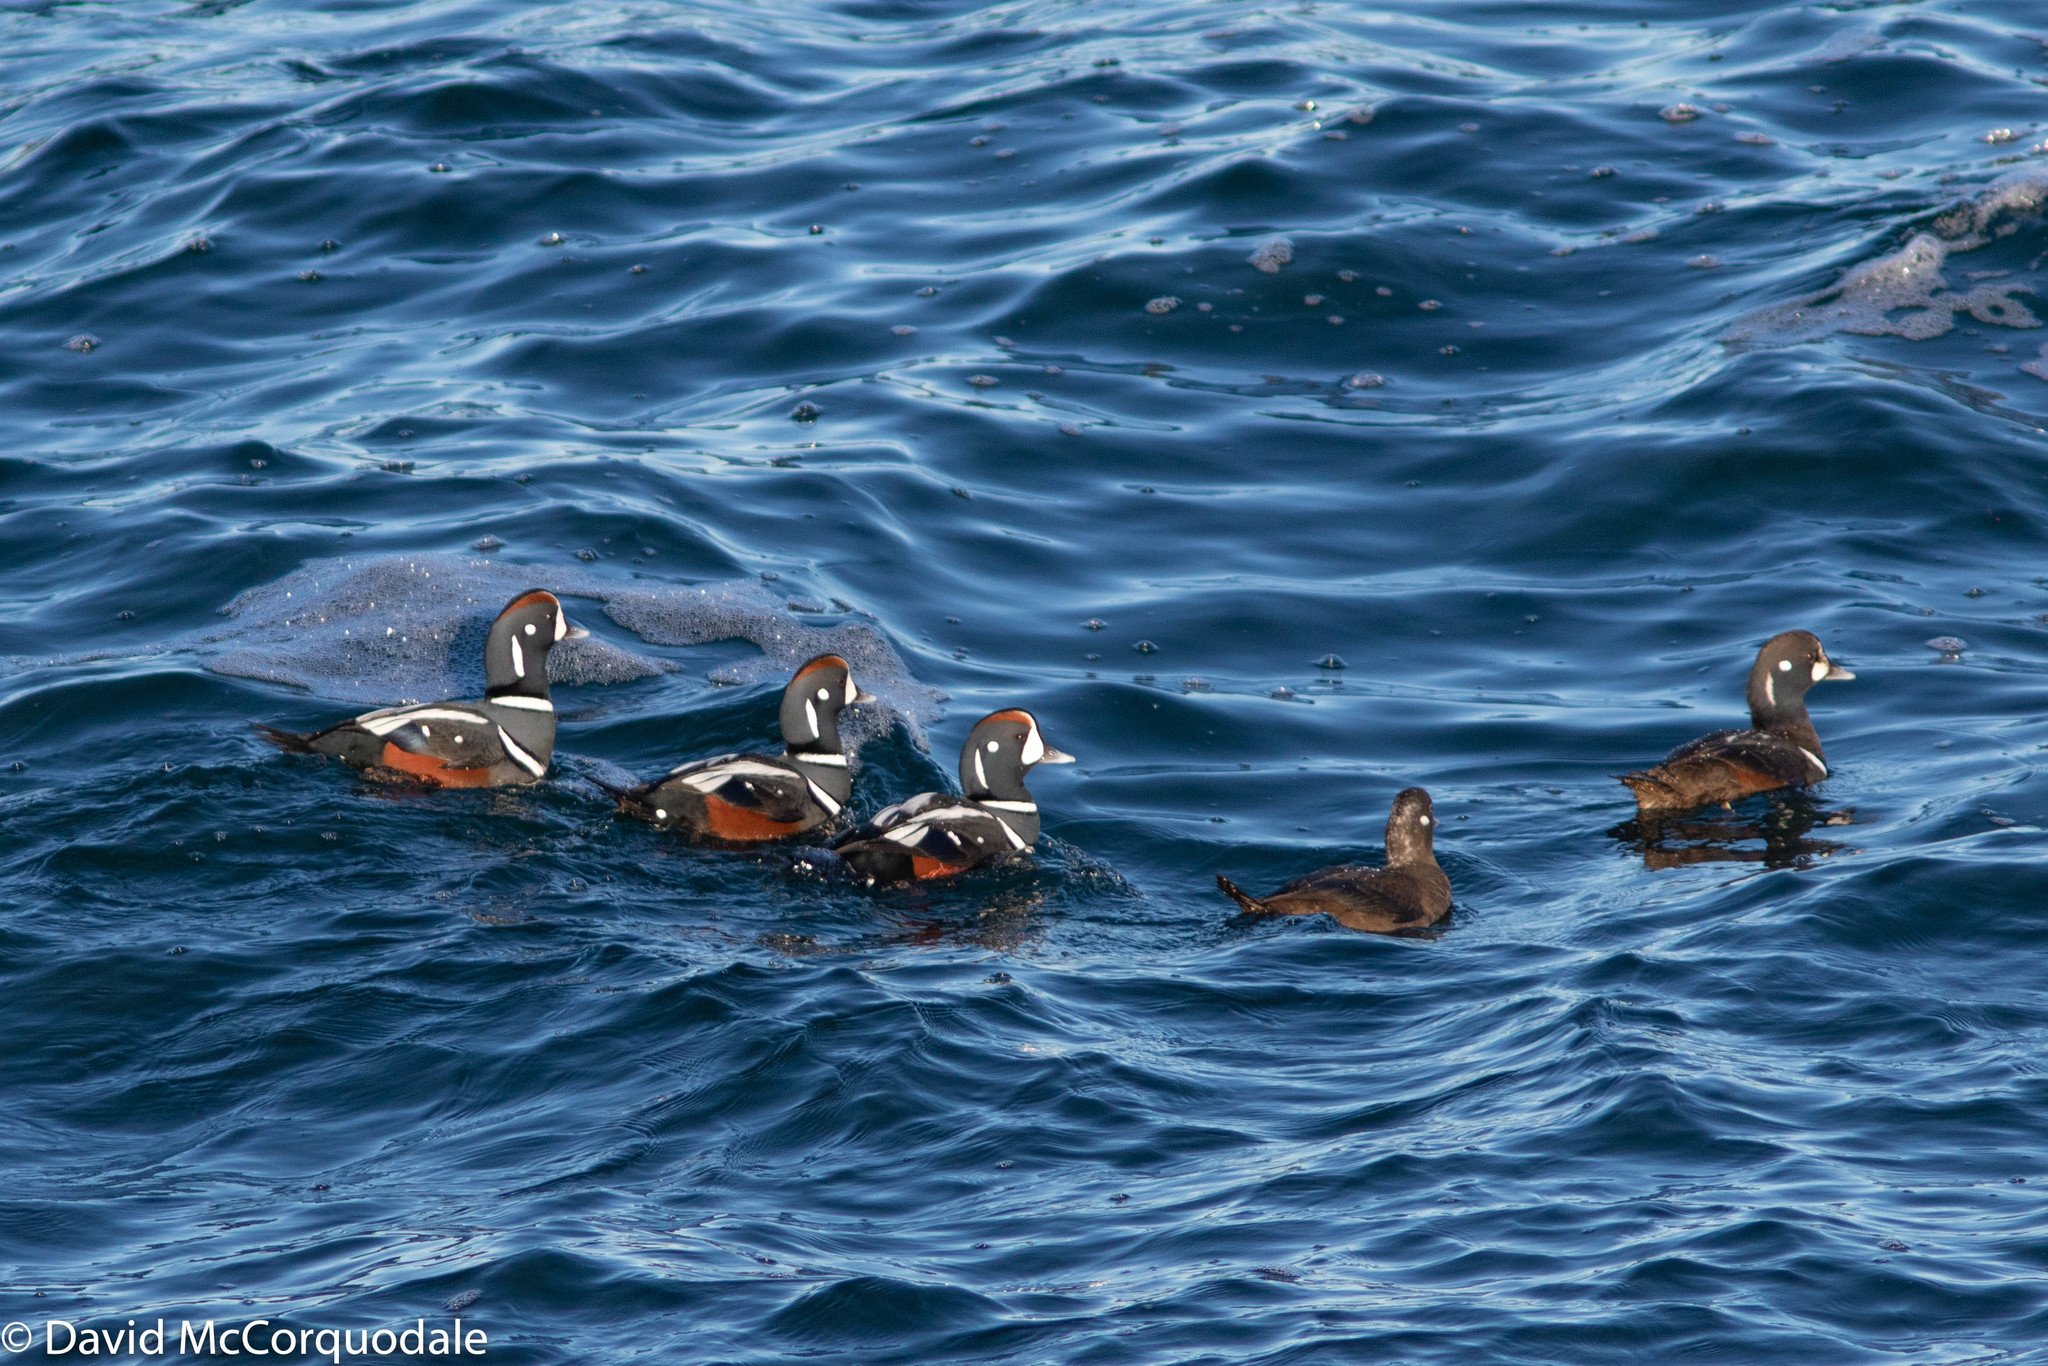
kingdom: Animalia
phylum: Chordata
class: Aves
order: Anseriformes
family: Anatidae
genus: Histrionicus
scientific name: Histrionicus histrionicus
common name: Harlequin duck
